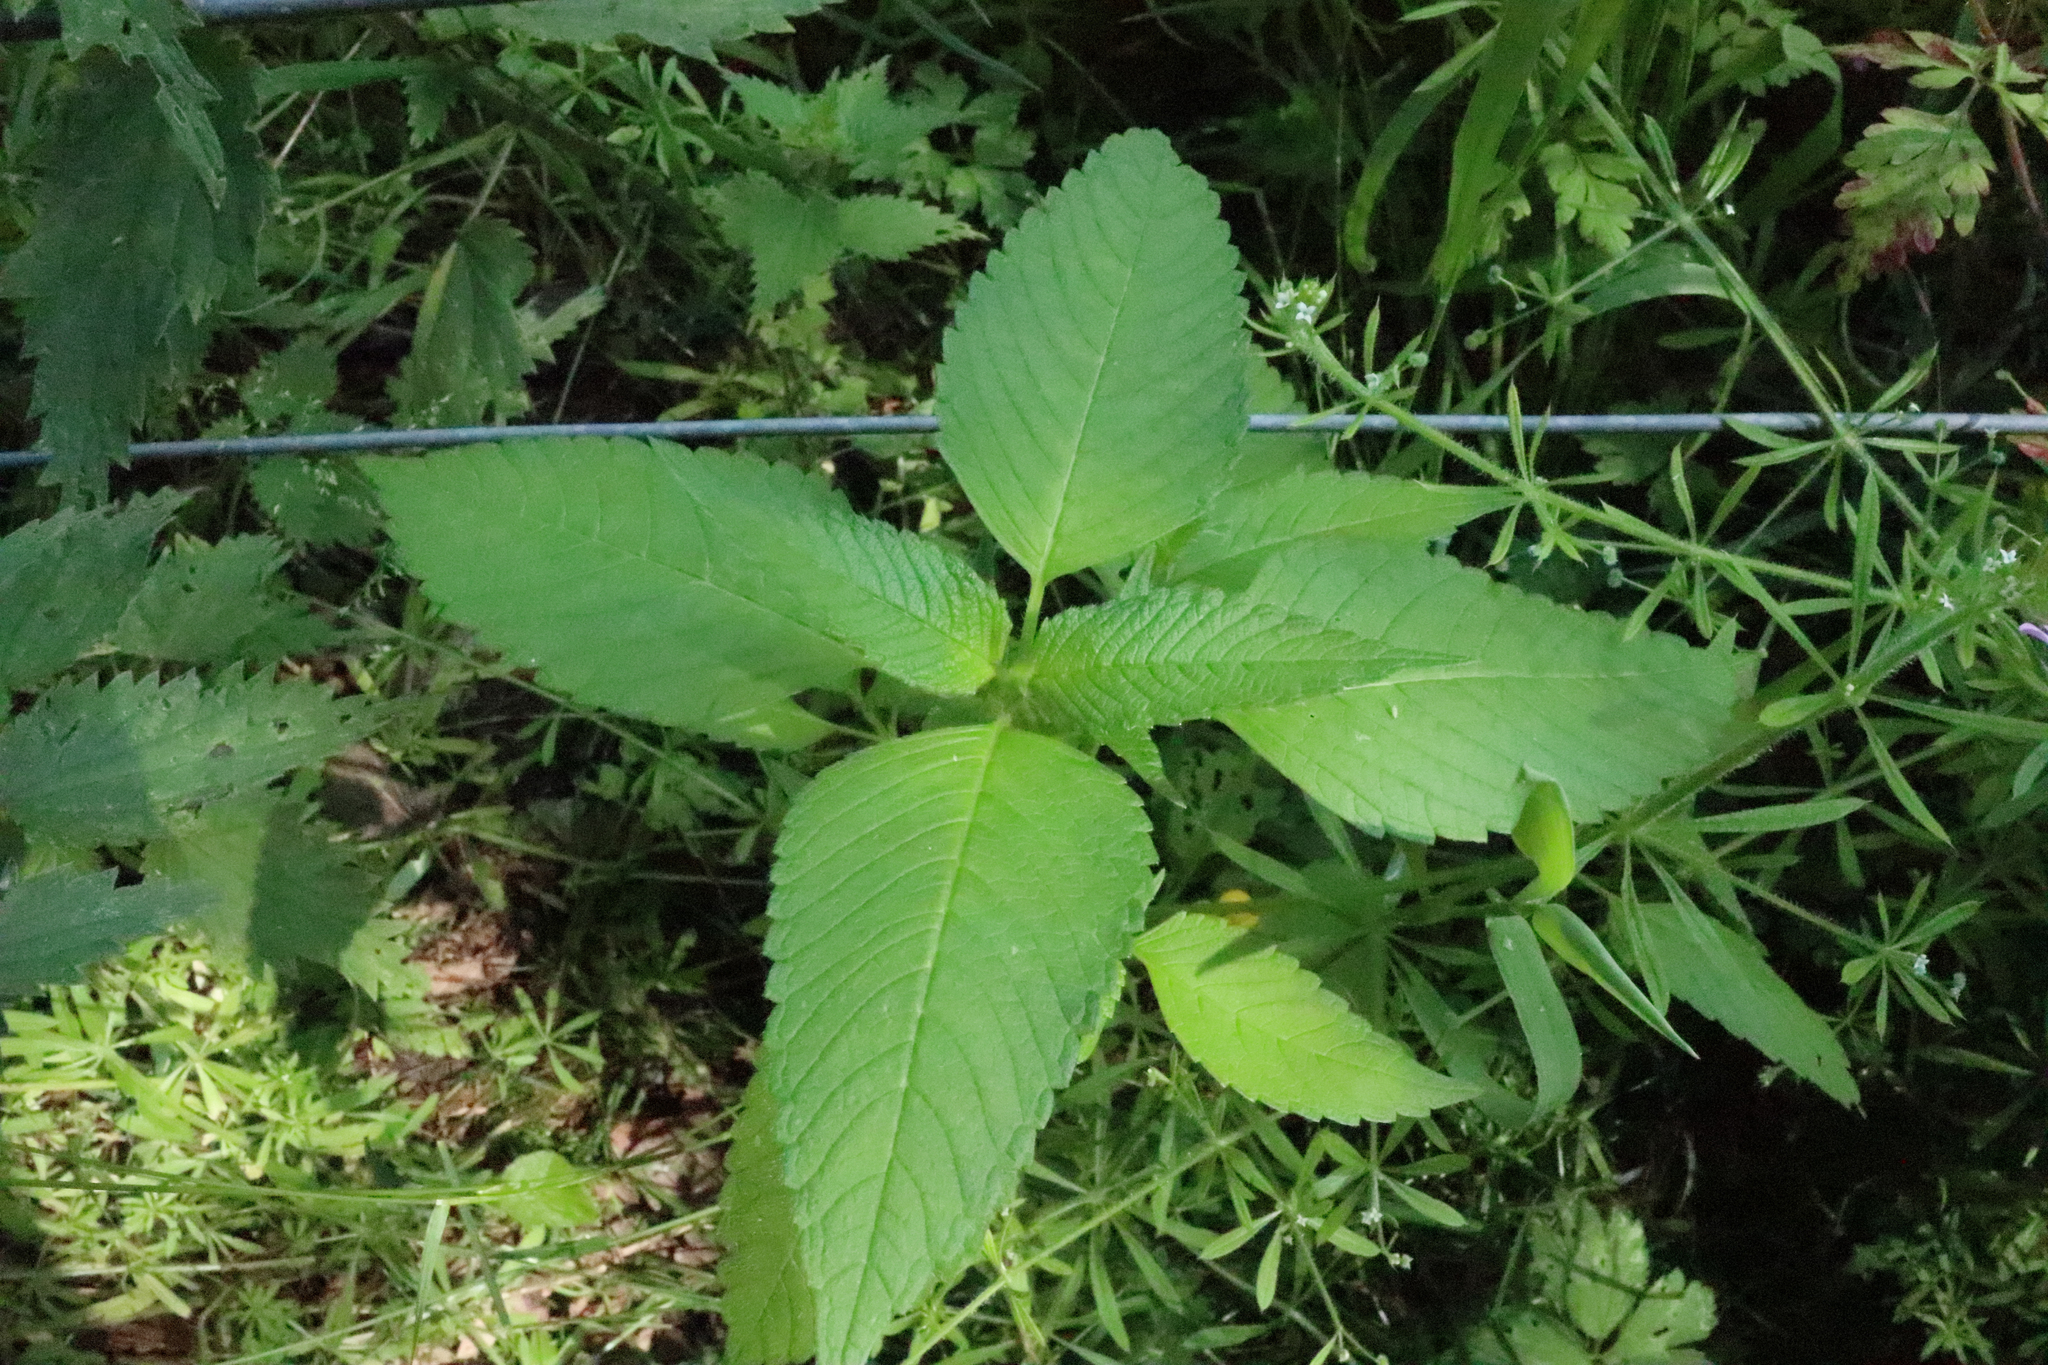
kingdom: Plantae
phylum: Tracheophyta
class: Magnoliopsida
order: Lamiales
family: Lamiaceae
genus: Galeopsis
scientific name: Galeopsis tetrahit
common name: Common hemp-nettle
